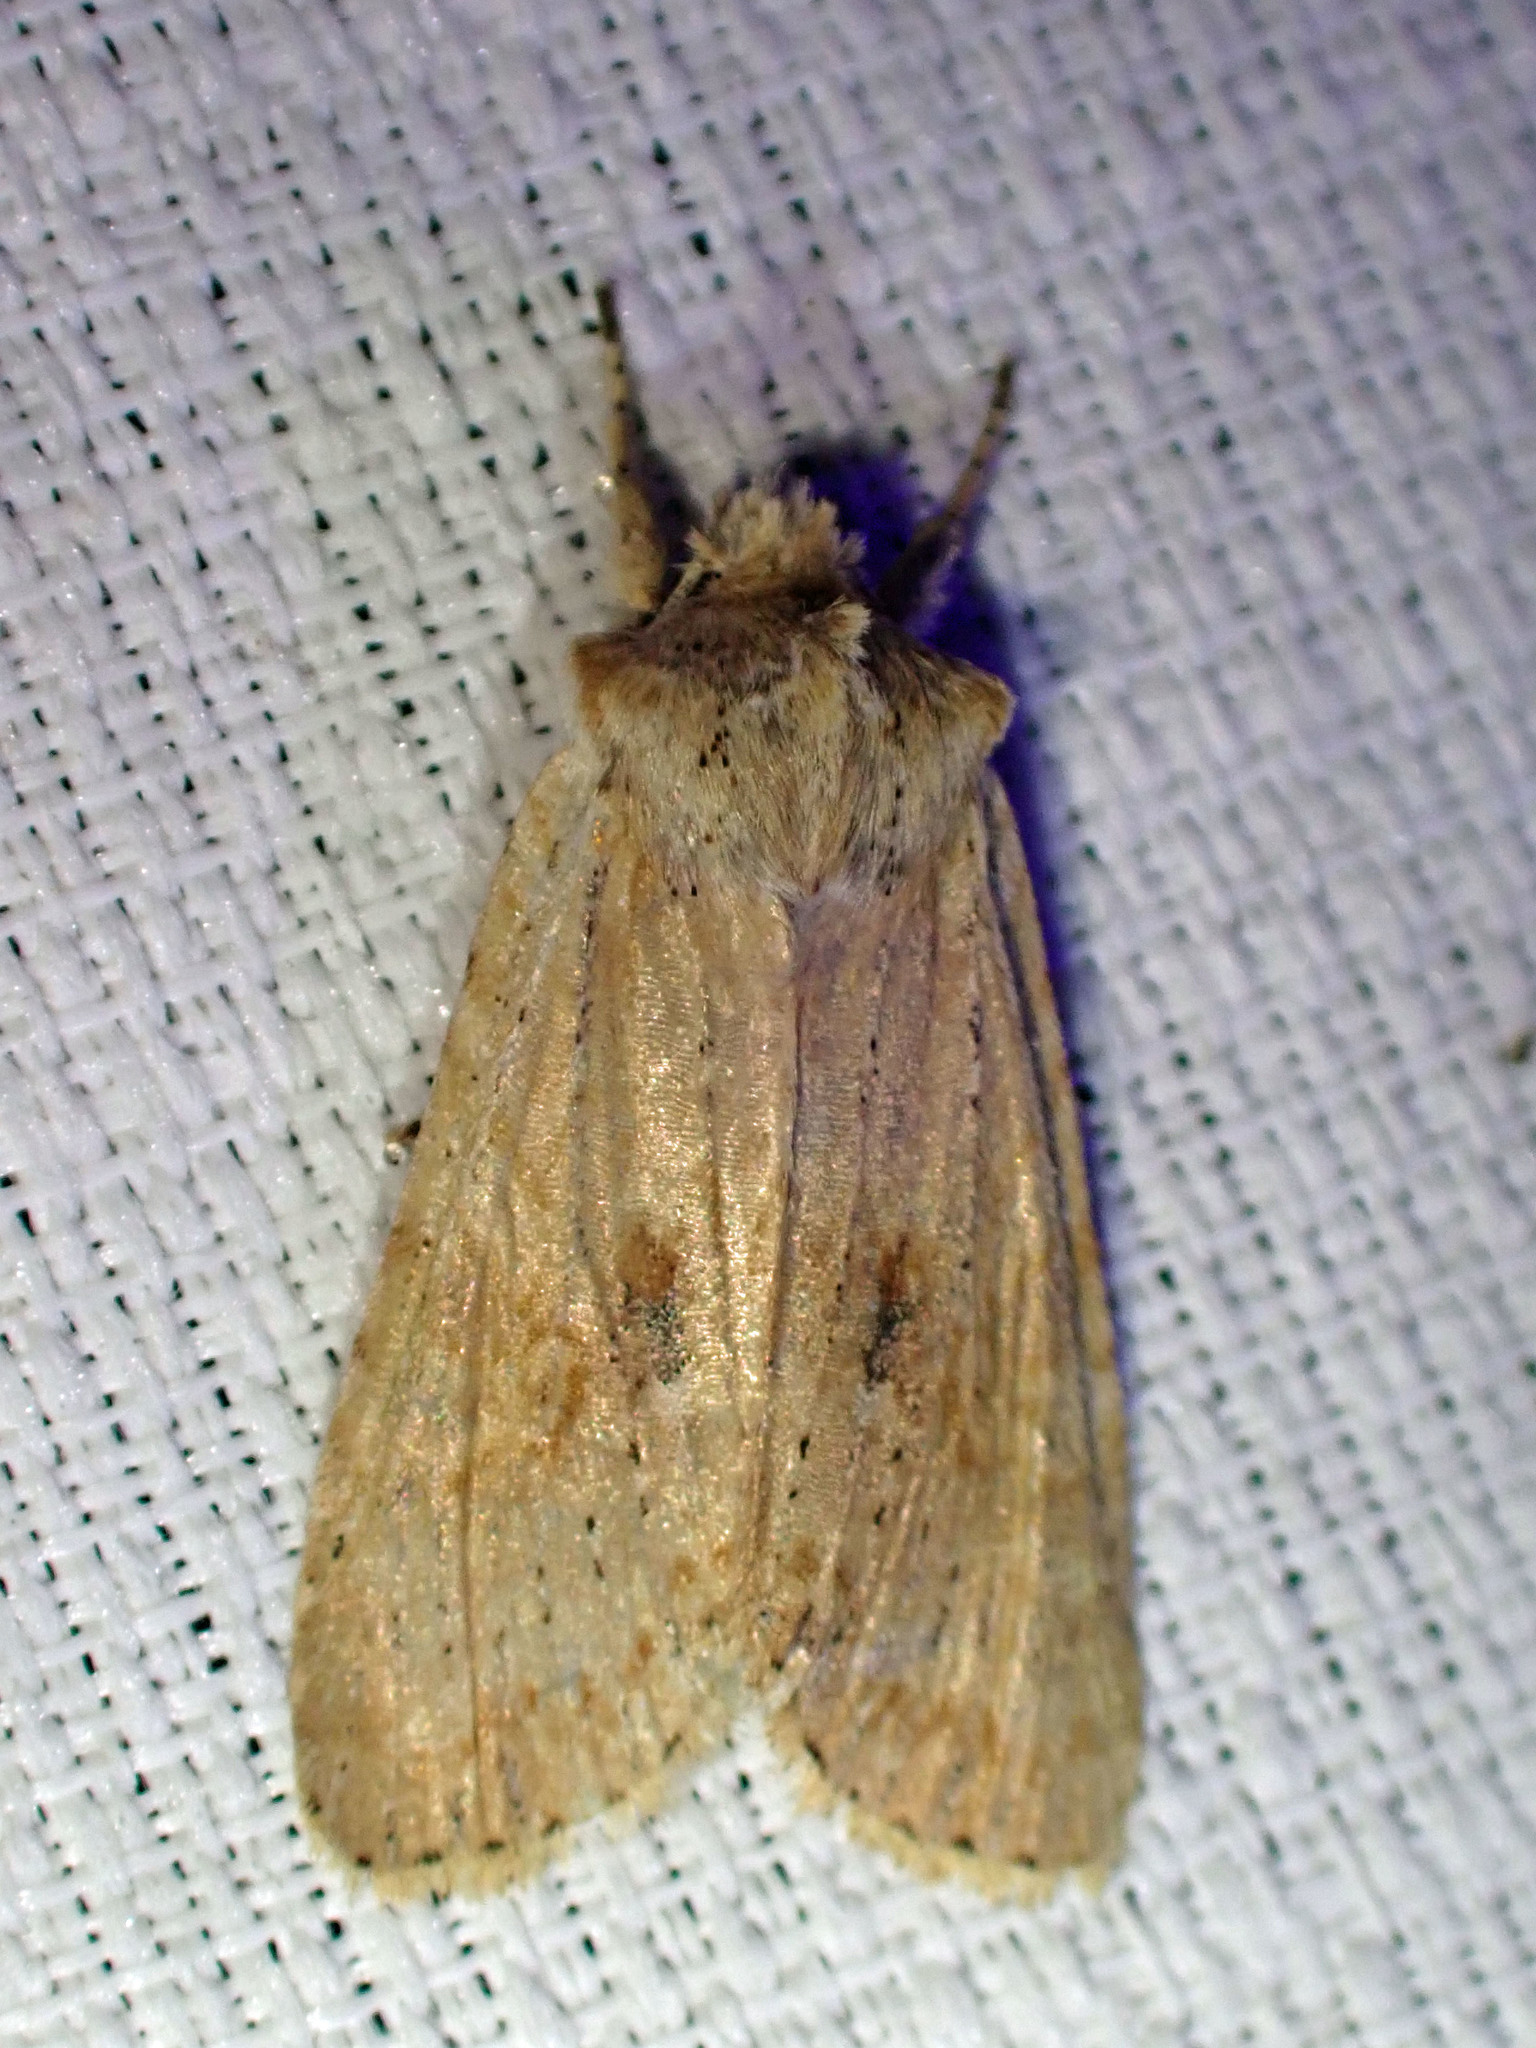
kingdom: Animalia
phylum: Arthropoda
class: Insecta
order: Lepidoptera
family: Noctuidae
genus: Lithophane
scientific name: Lithophane innominata
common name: Nameless pinion moth
